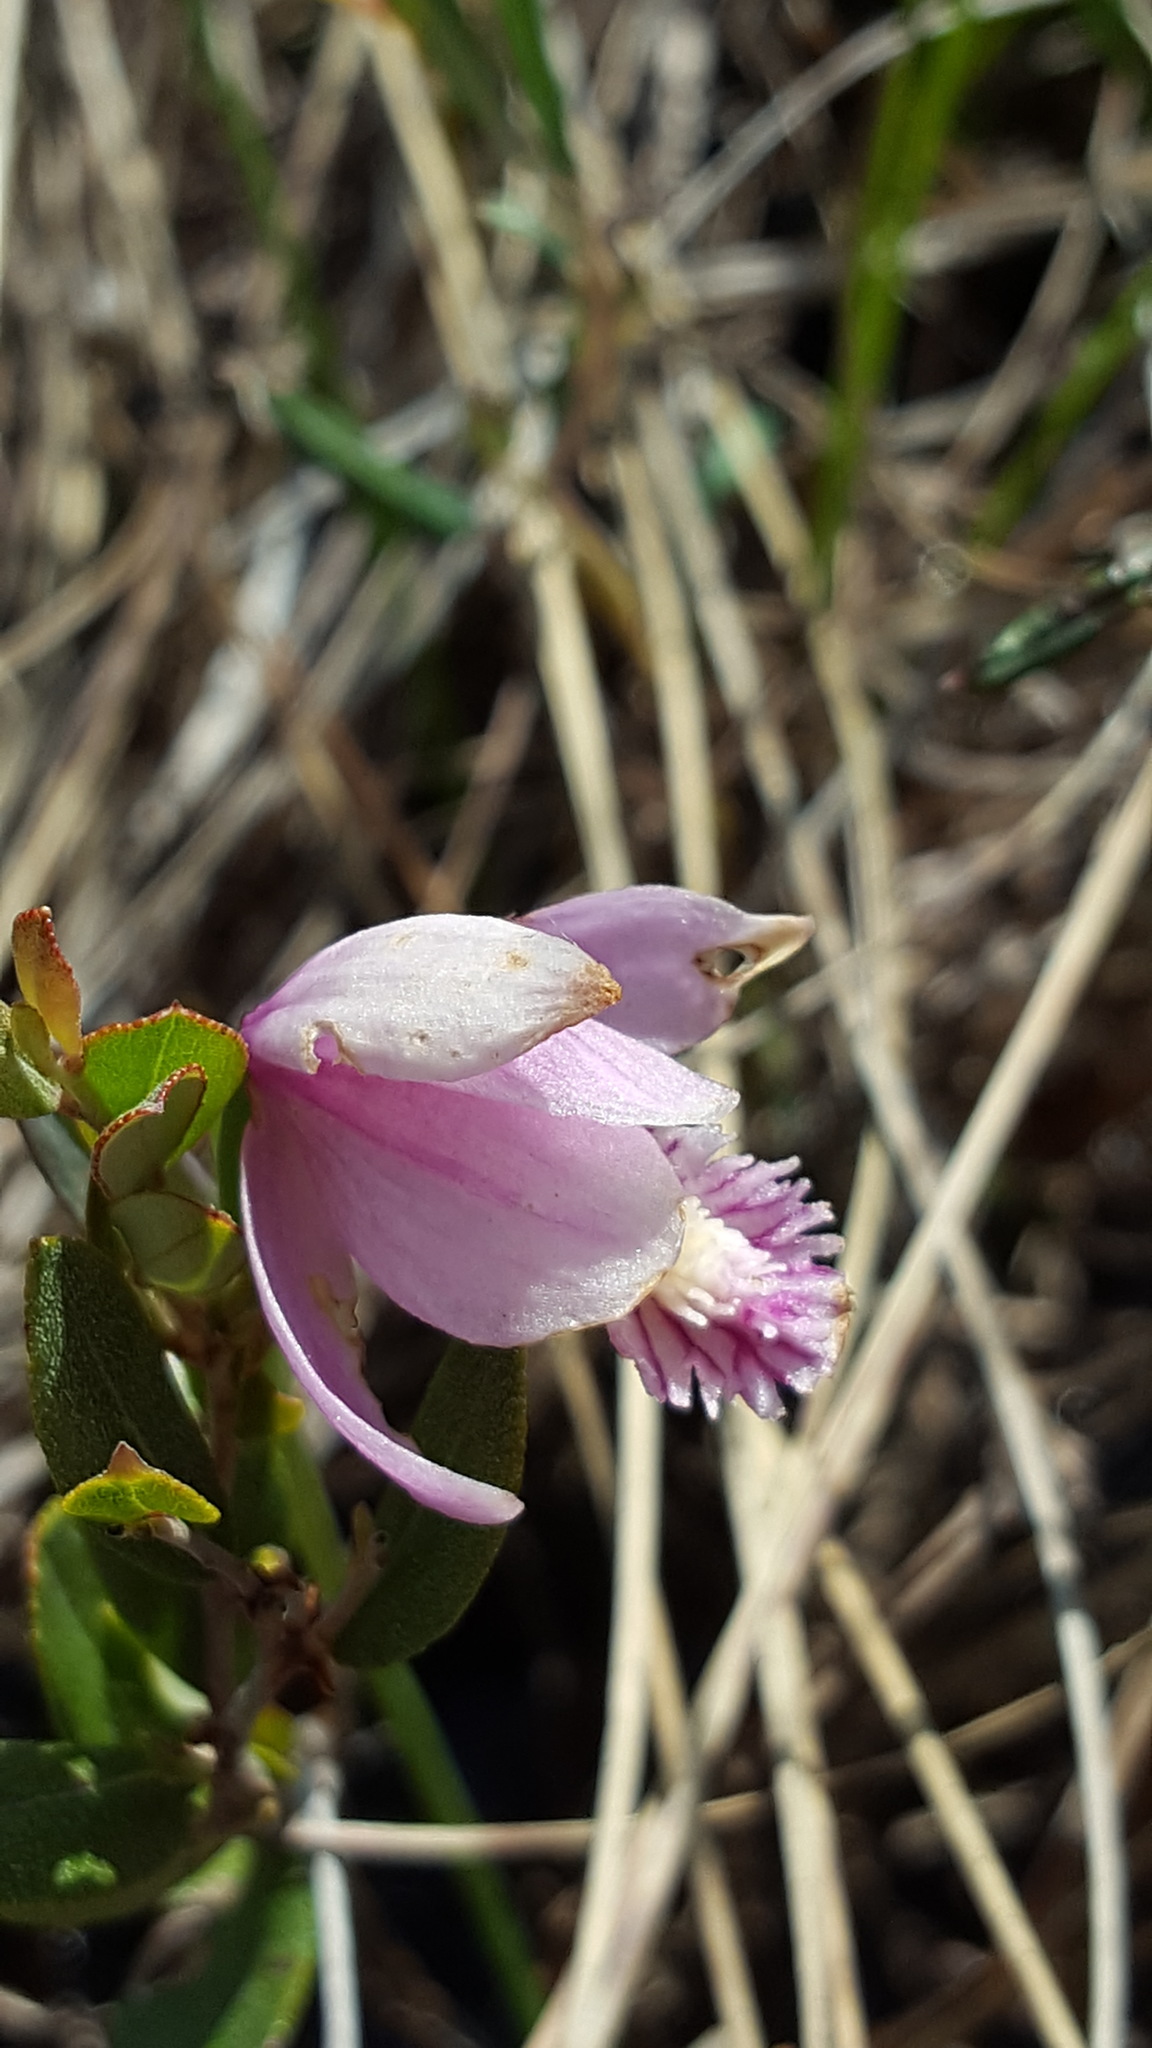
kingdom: Plantae
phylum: Tracheophyta
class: Liliopsida
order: Asparagales
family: Orchidaceae
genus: Pogonia
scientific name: Pogonia ophioglossoides
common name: Rose pogonia
